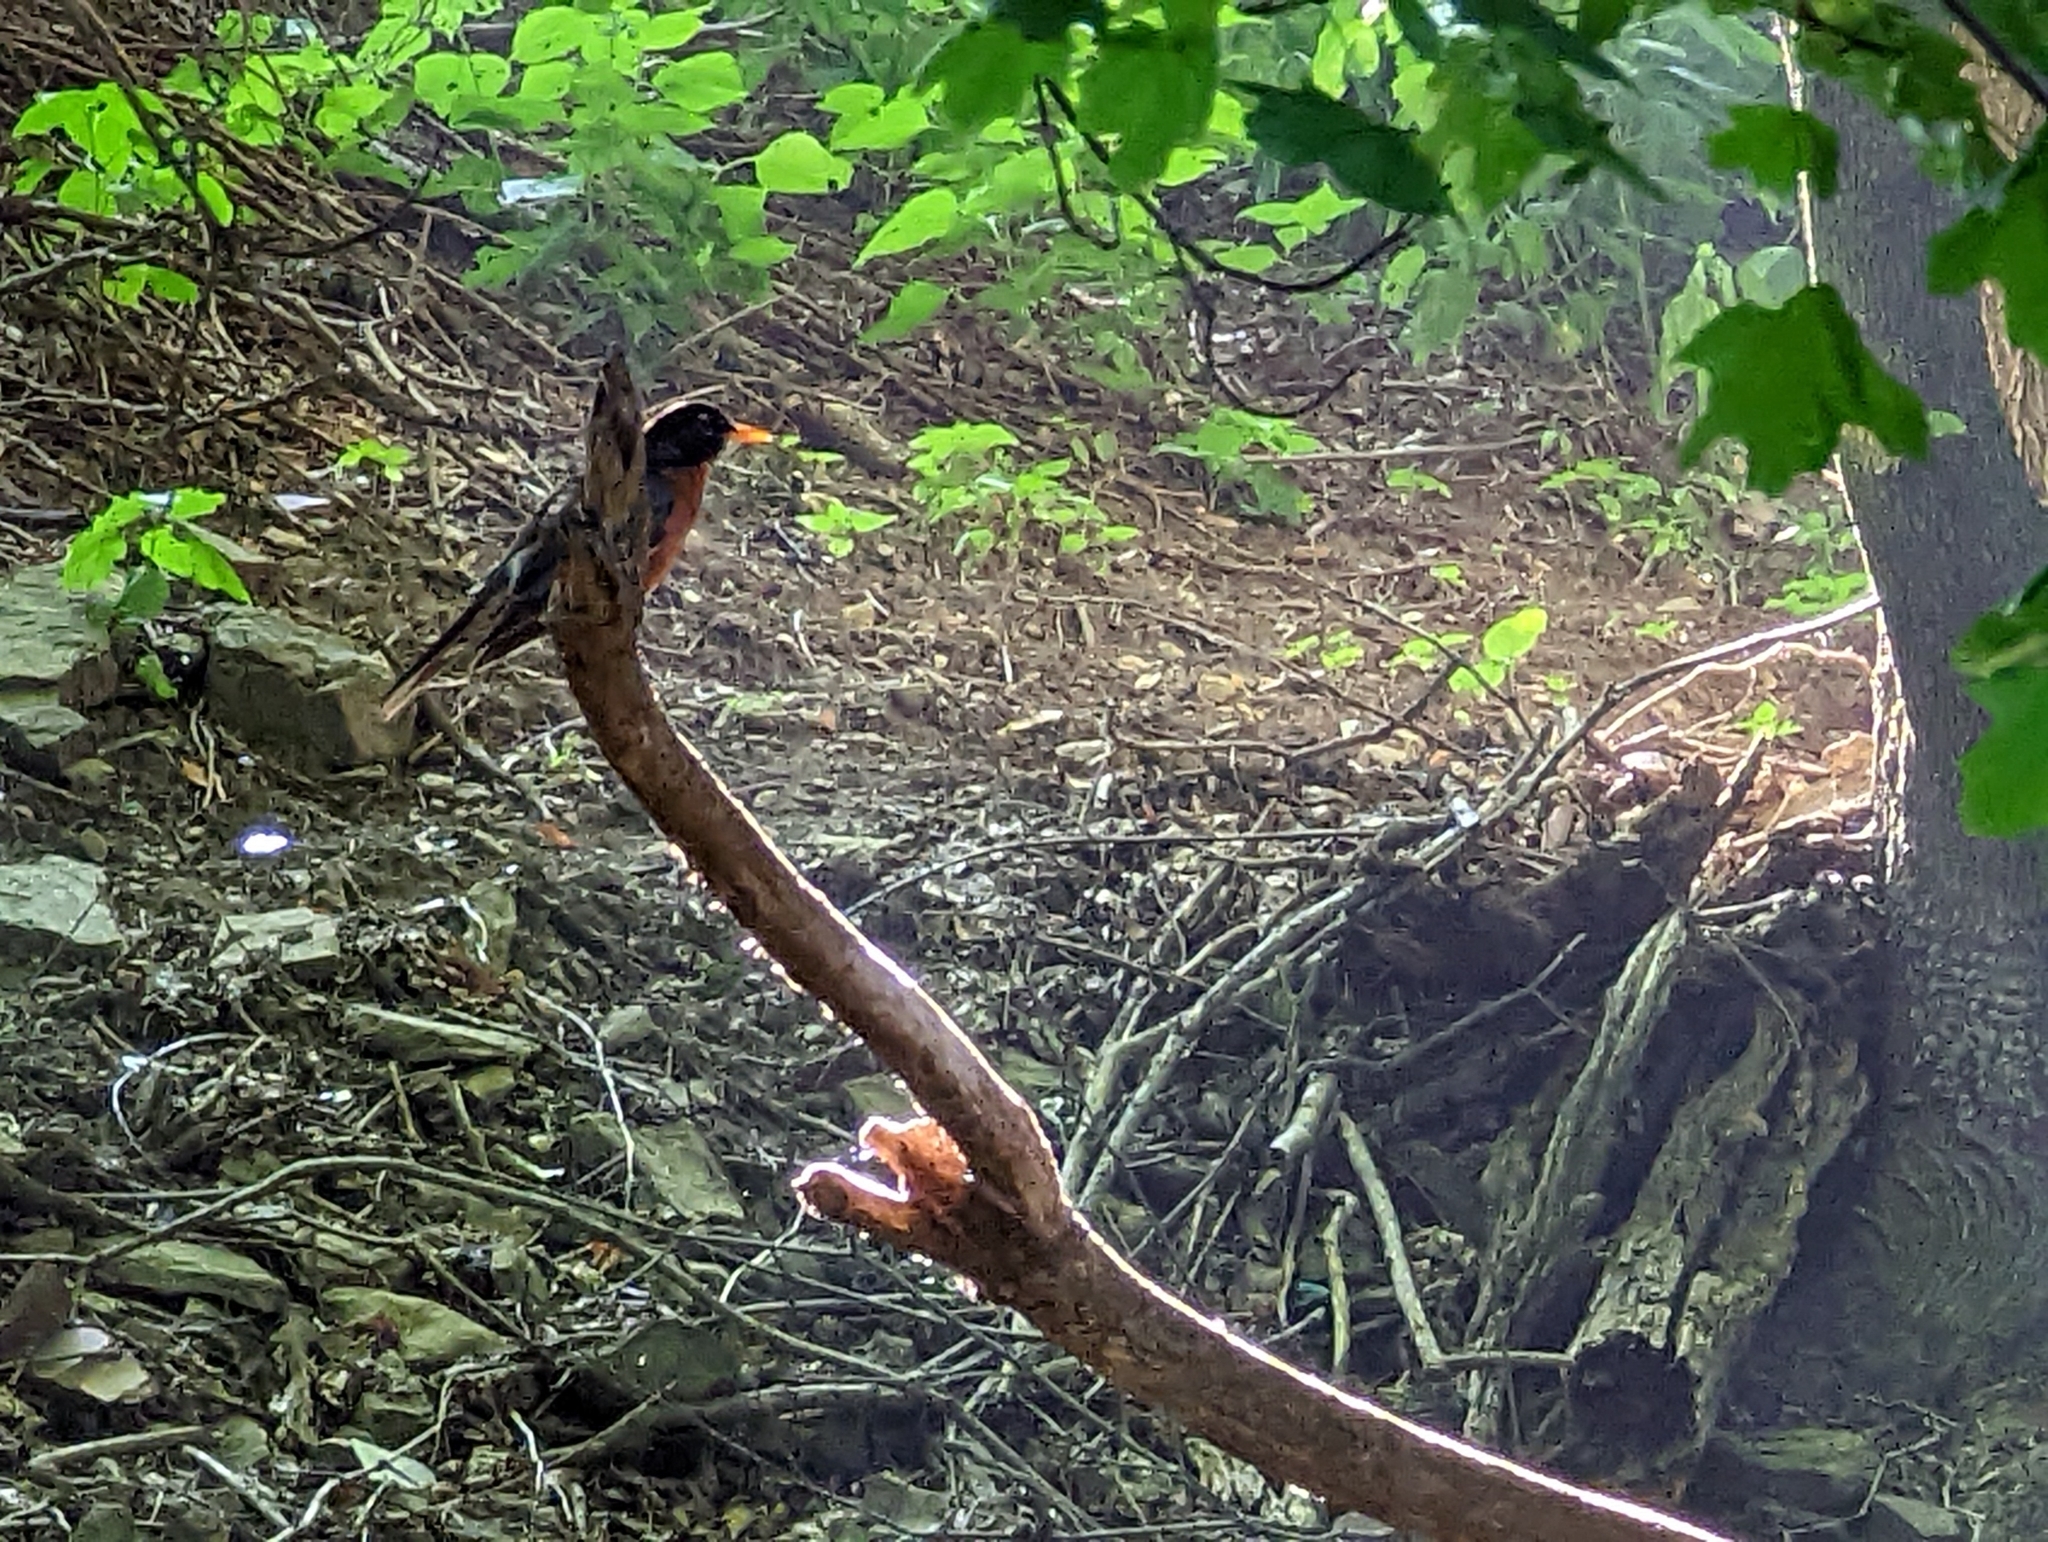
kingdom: Animalia
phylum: Chordata
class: Aves
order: Passeriformes
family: Turdidae
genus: Turdus
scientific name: Turdus migratorius
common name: American robin
